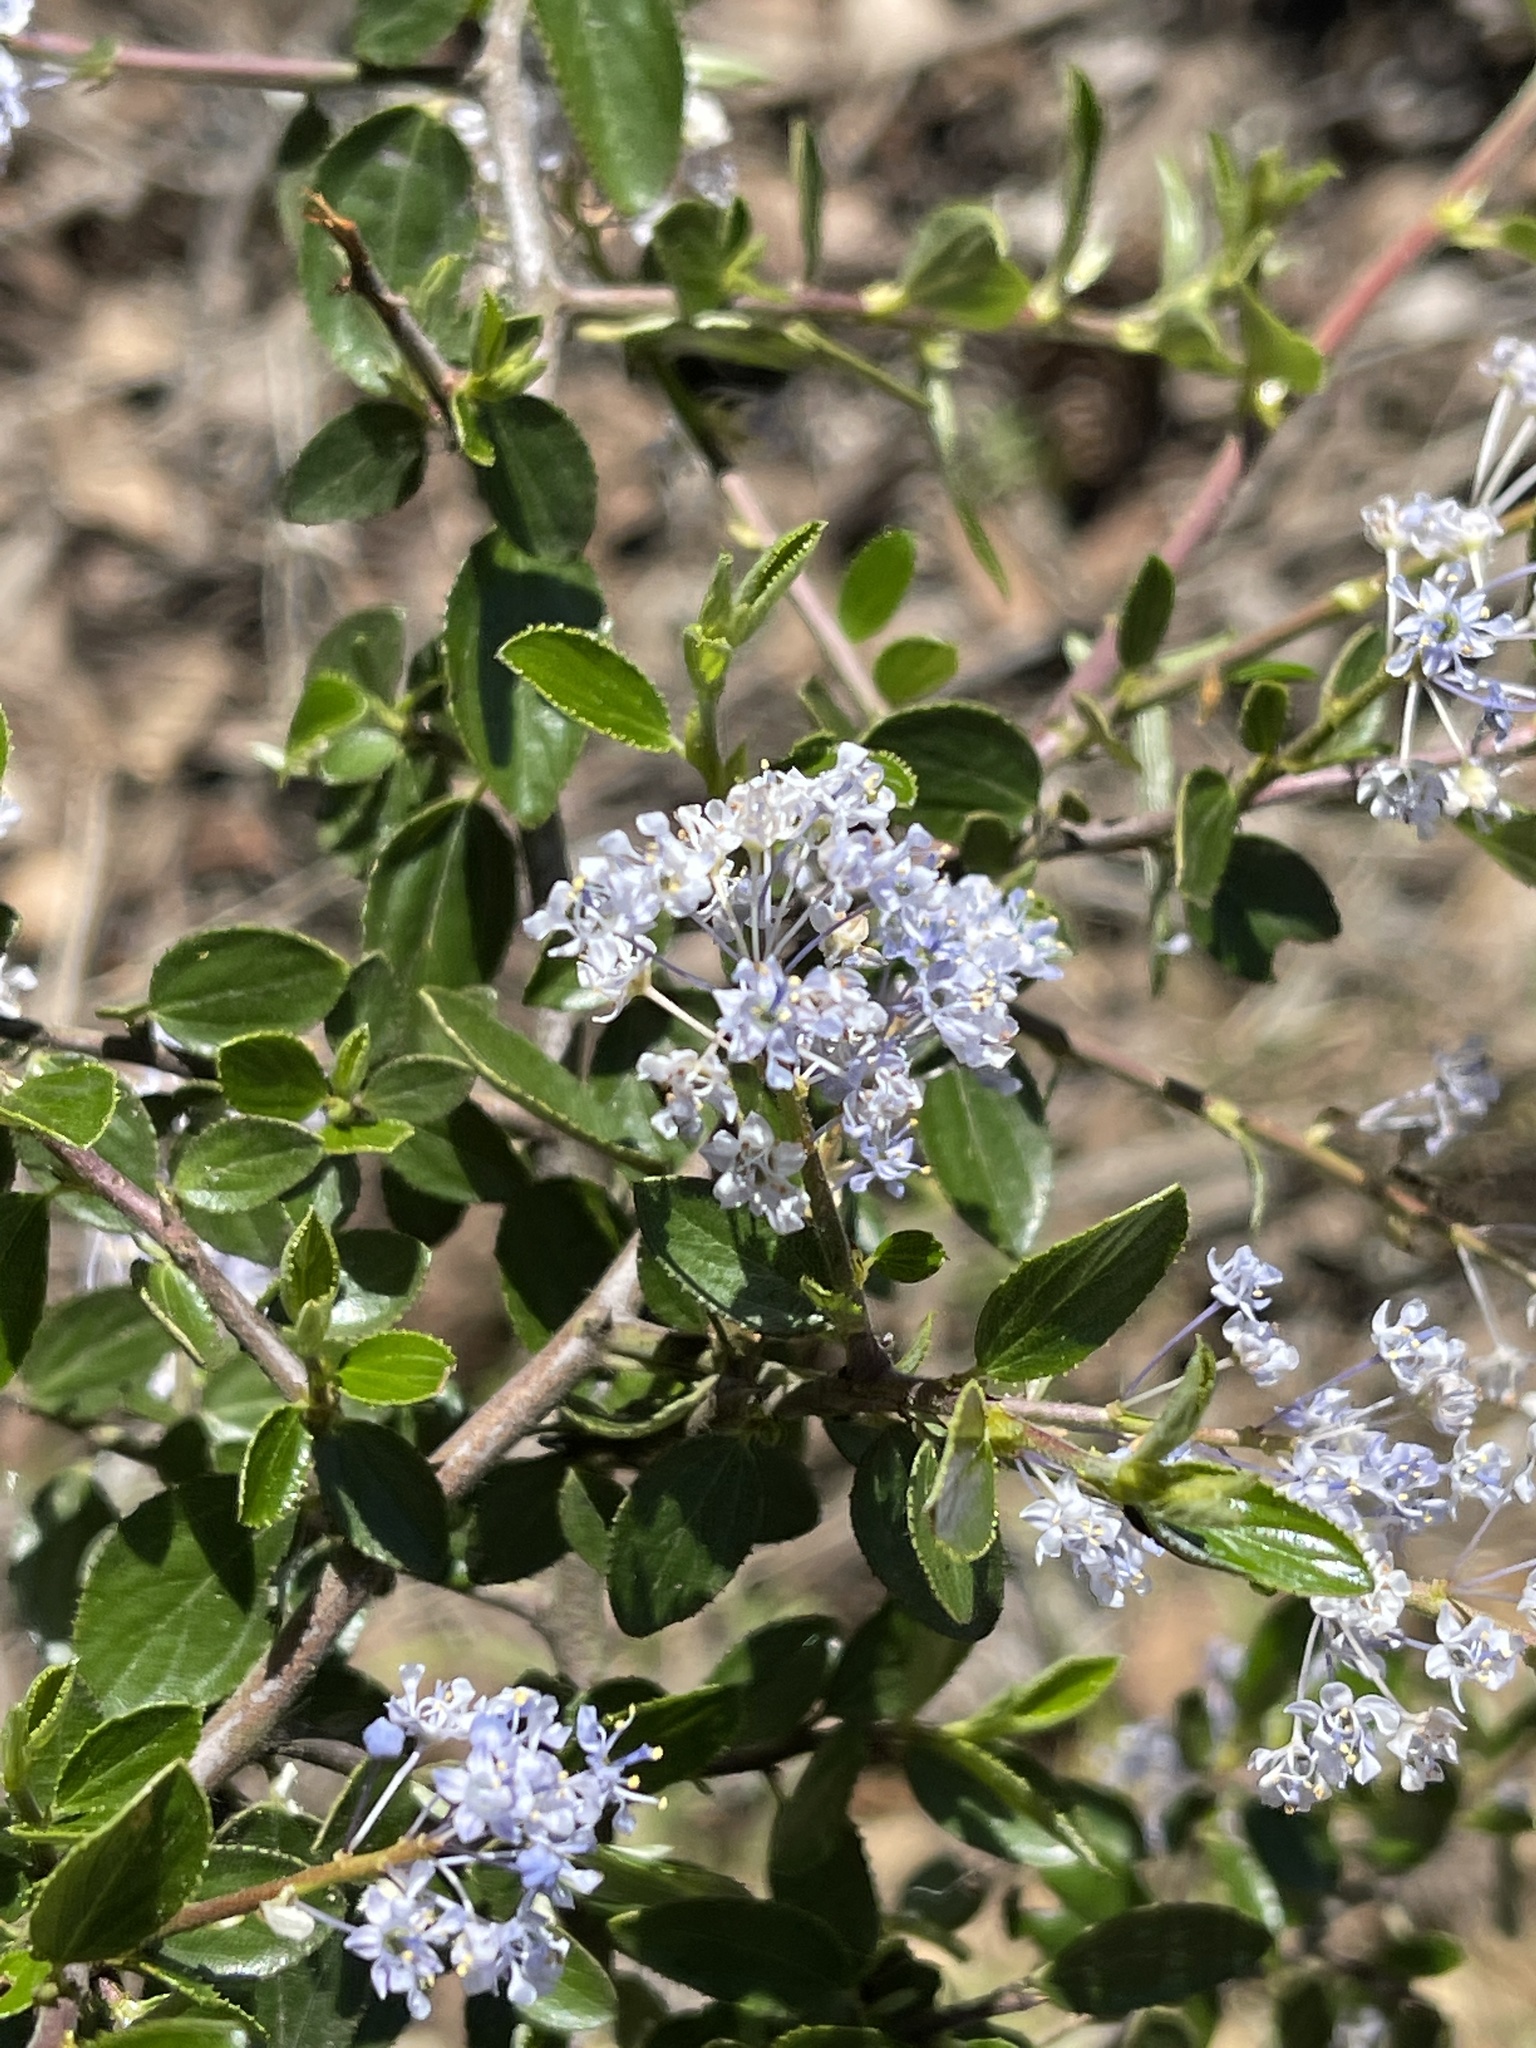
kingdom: Plantae
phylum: Tracheophyta
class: Magnoliopsida
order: Rosales
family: Rhamnaceae
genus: Ceanothus
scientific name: Ceanothus sorediatus
